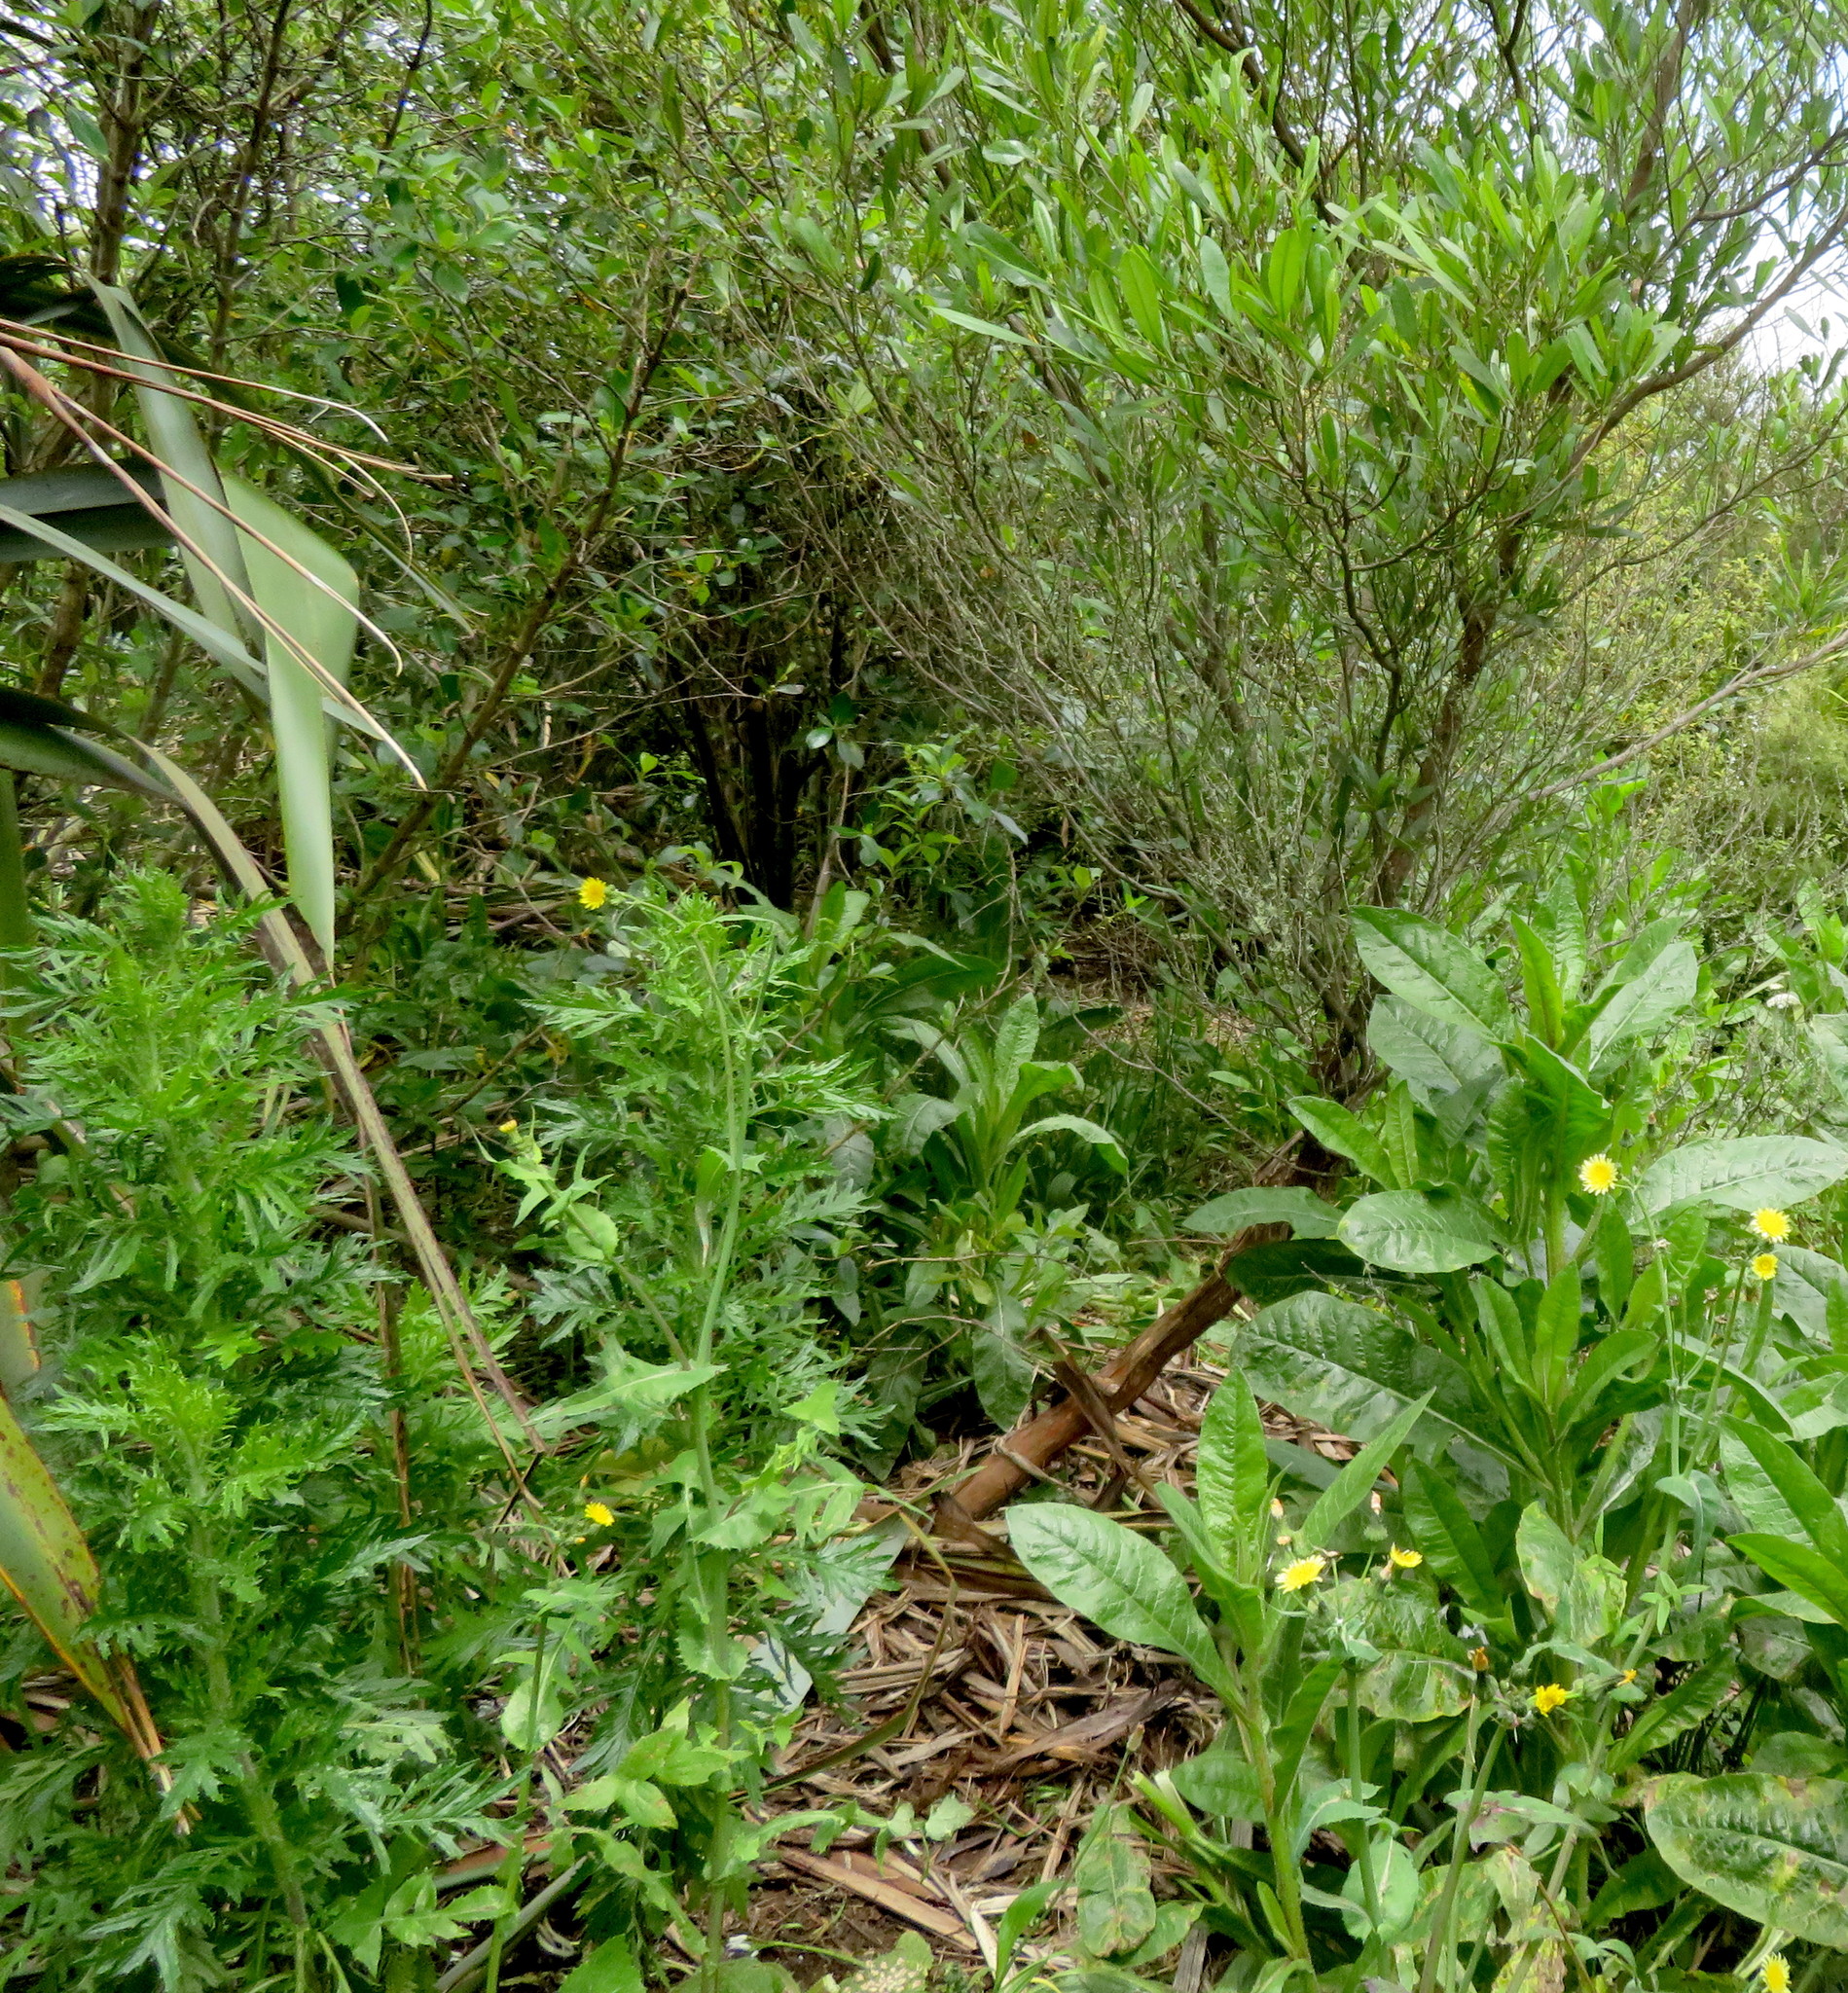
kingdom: Plantae
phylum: Tracheophyta
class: Magnoliopsida
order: Asterales
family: Asteraceae
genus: Senecio
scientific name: Senecio esleri
